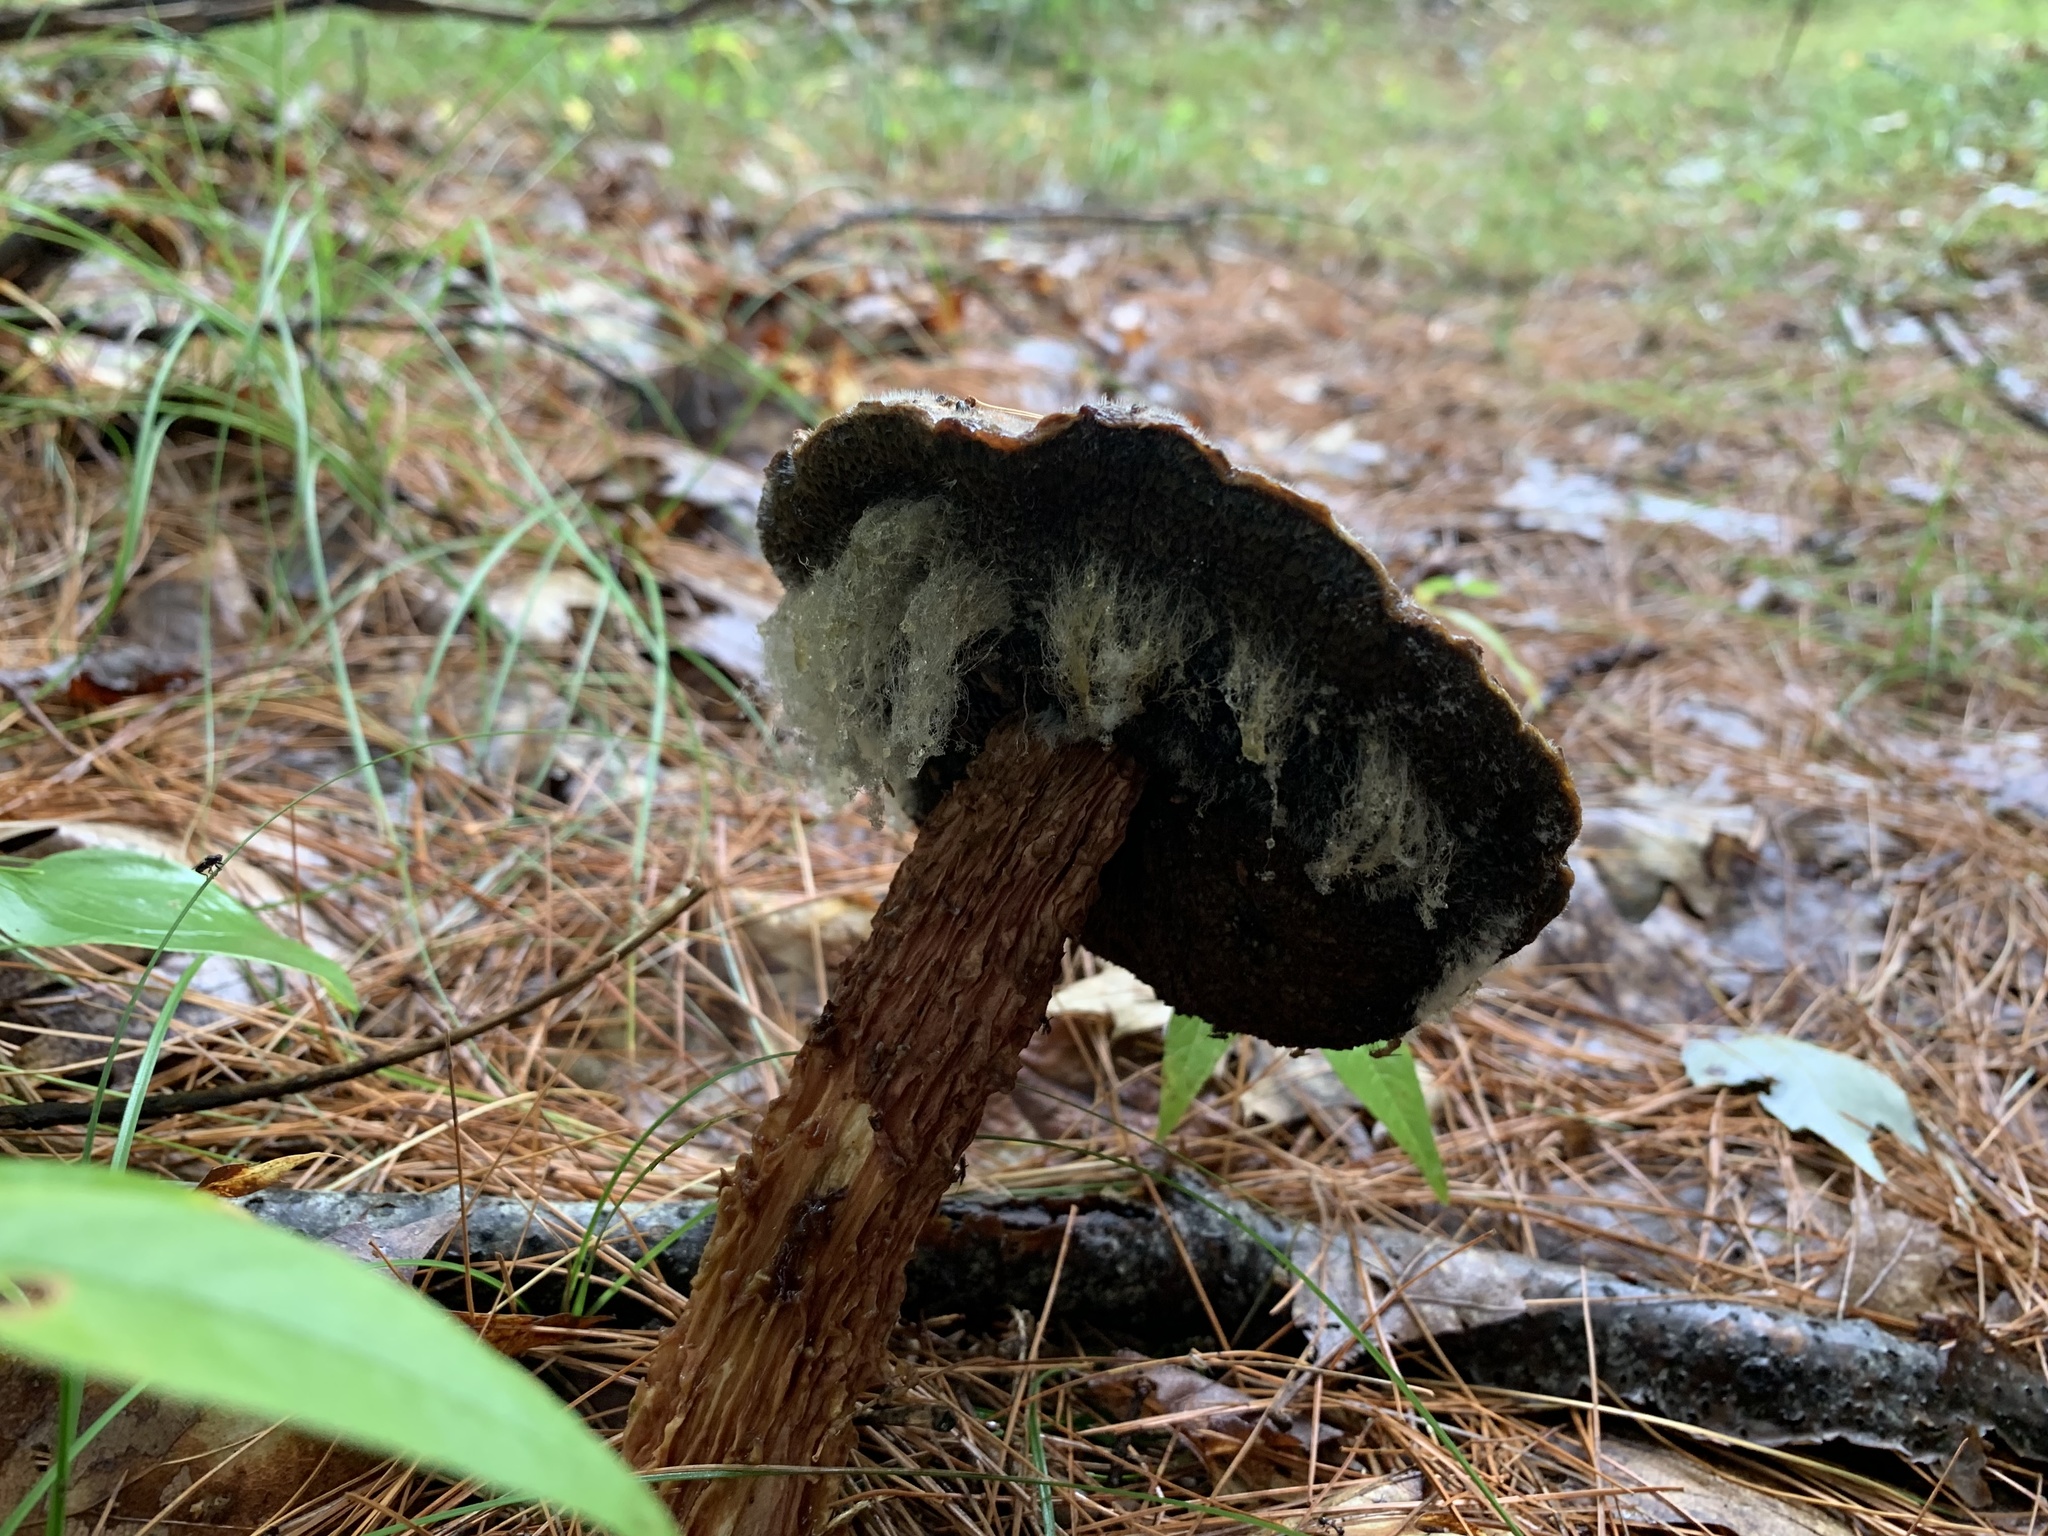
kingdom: Fungi
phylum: Mucoromycota
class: Mucoromycetes
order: Mucorales
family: Rhizopodaceae
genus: Syzygites
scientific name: Syzygites megalocarpus
